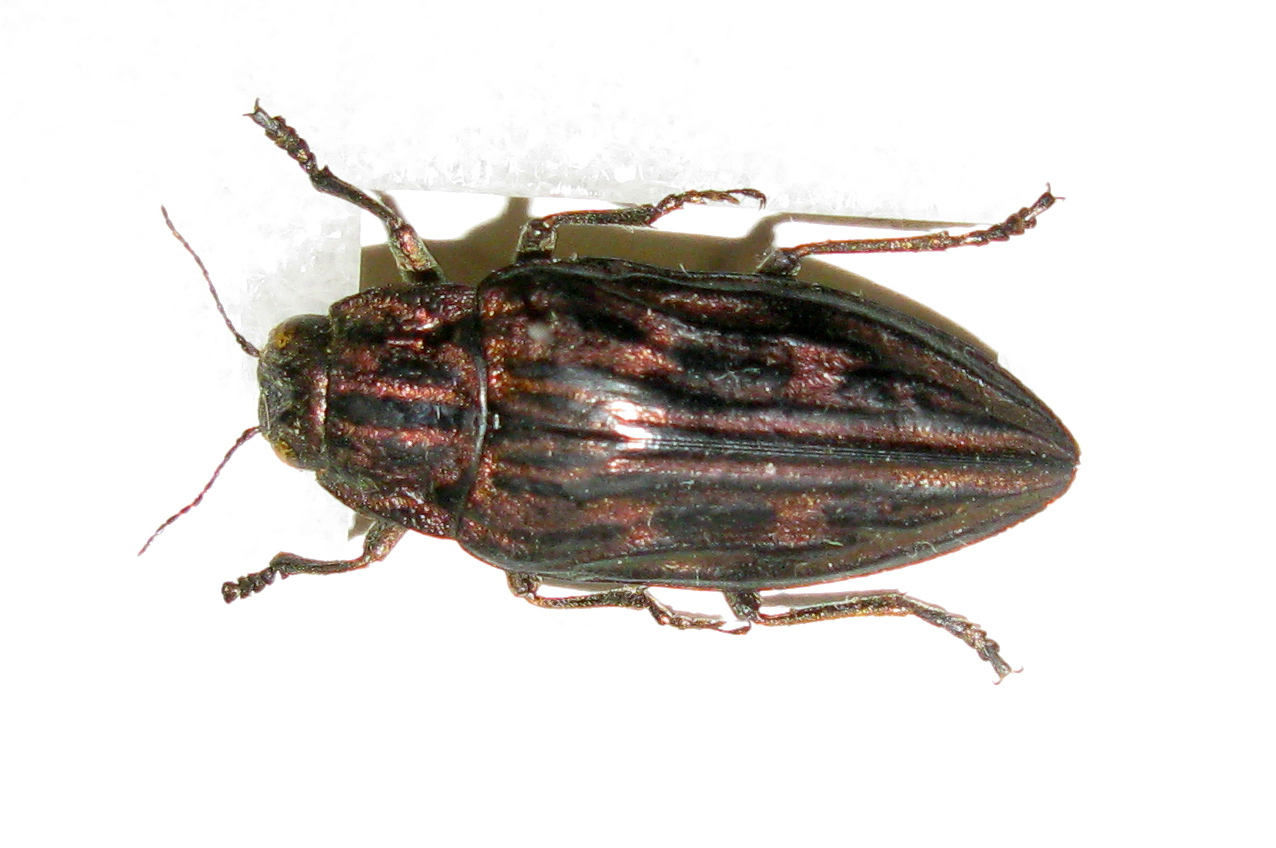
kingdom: Animalia
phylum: Arthropoda
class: Insecta
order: Coleoptera
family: Buprestidae
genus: Chalcophora
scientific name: Chalcophora mariana
